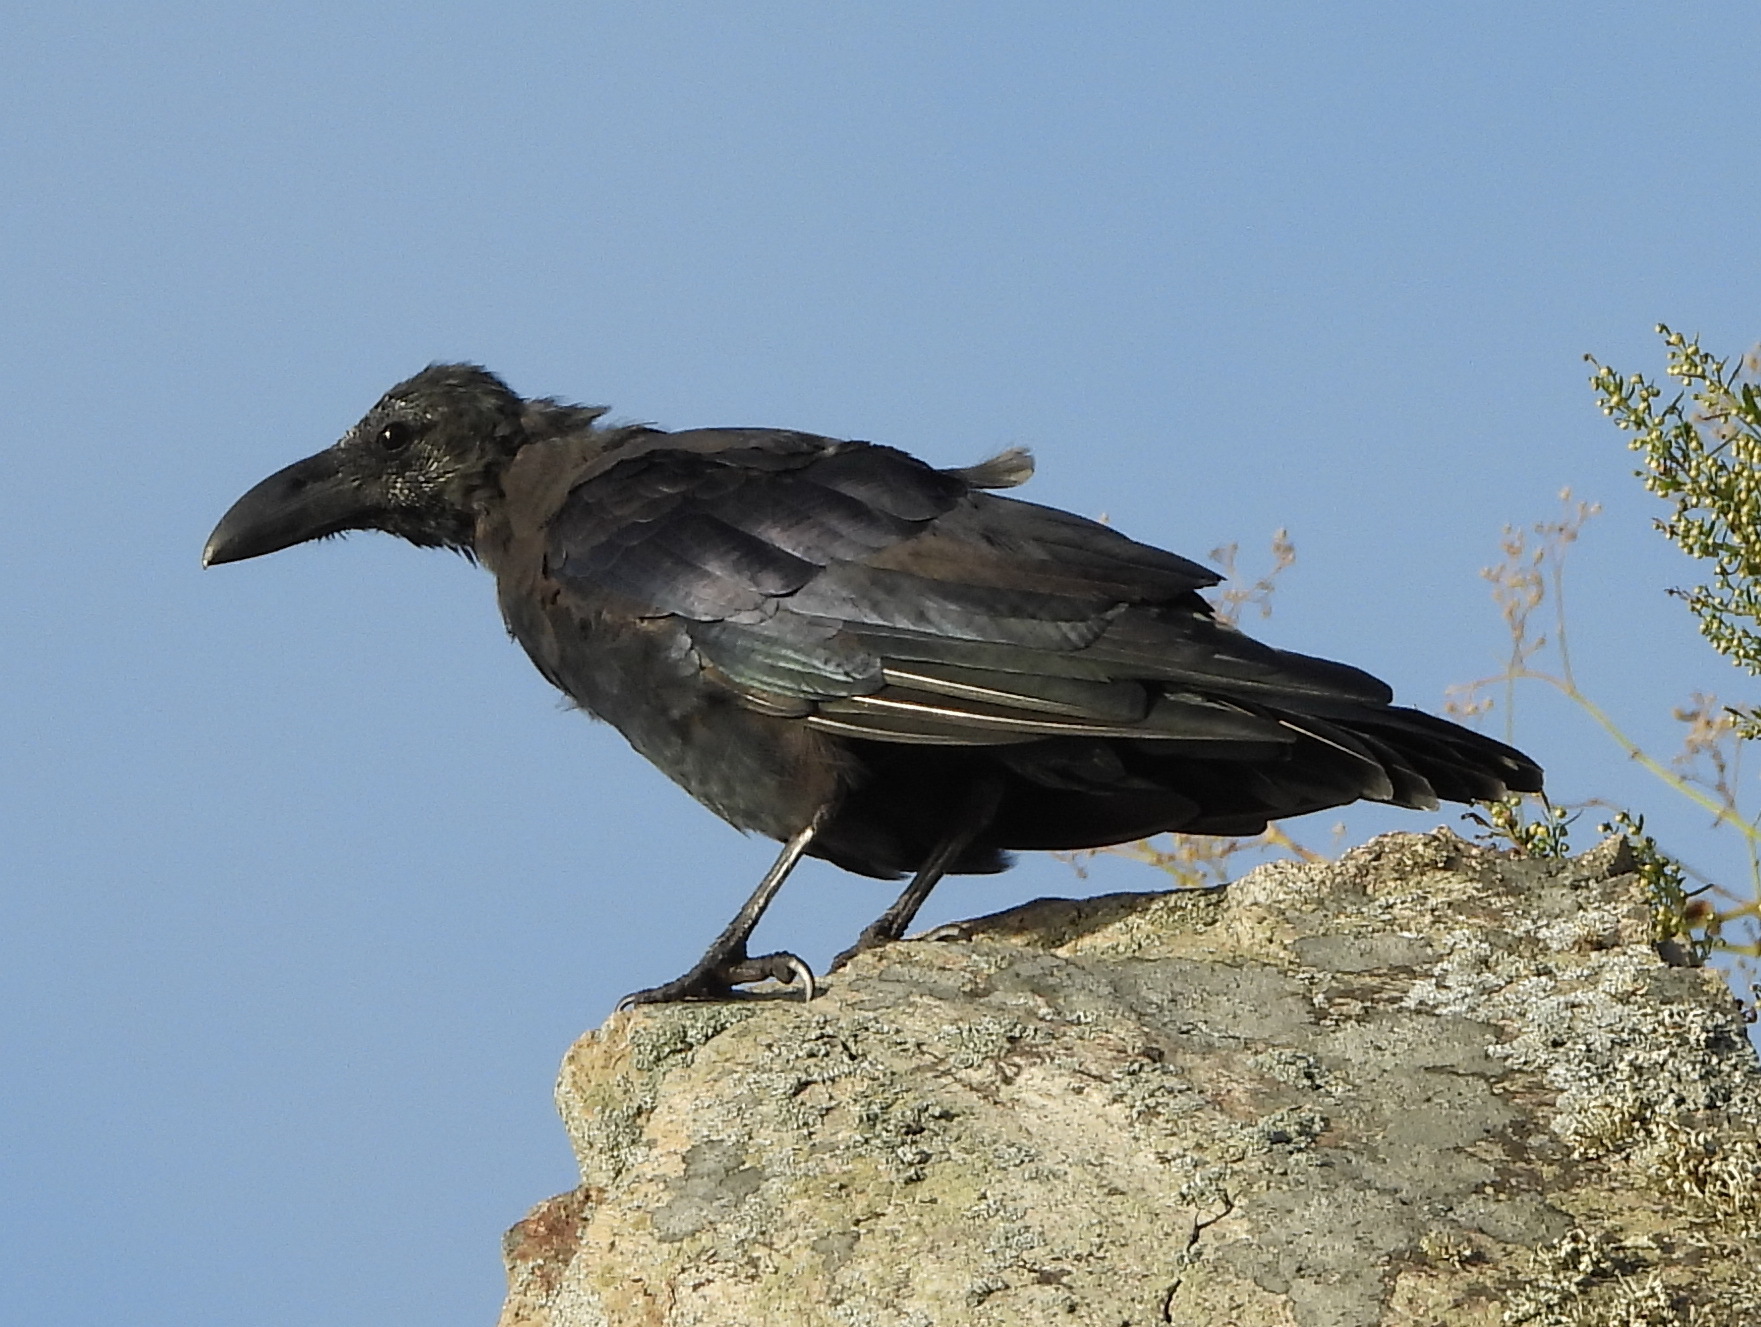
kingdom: Animalia
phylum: Chordata
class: Aves
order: Passeriformes
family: Corvidae
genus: Corvus
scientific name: Corvus macrorhynchos
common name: Large-billed crow
